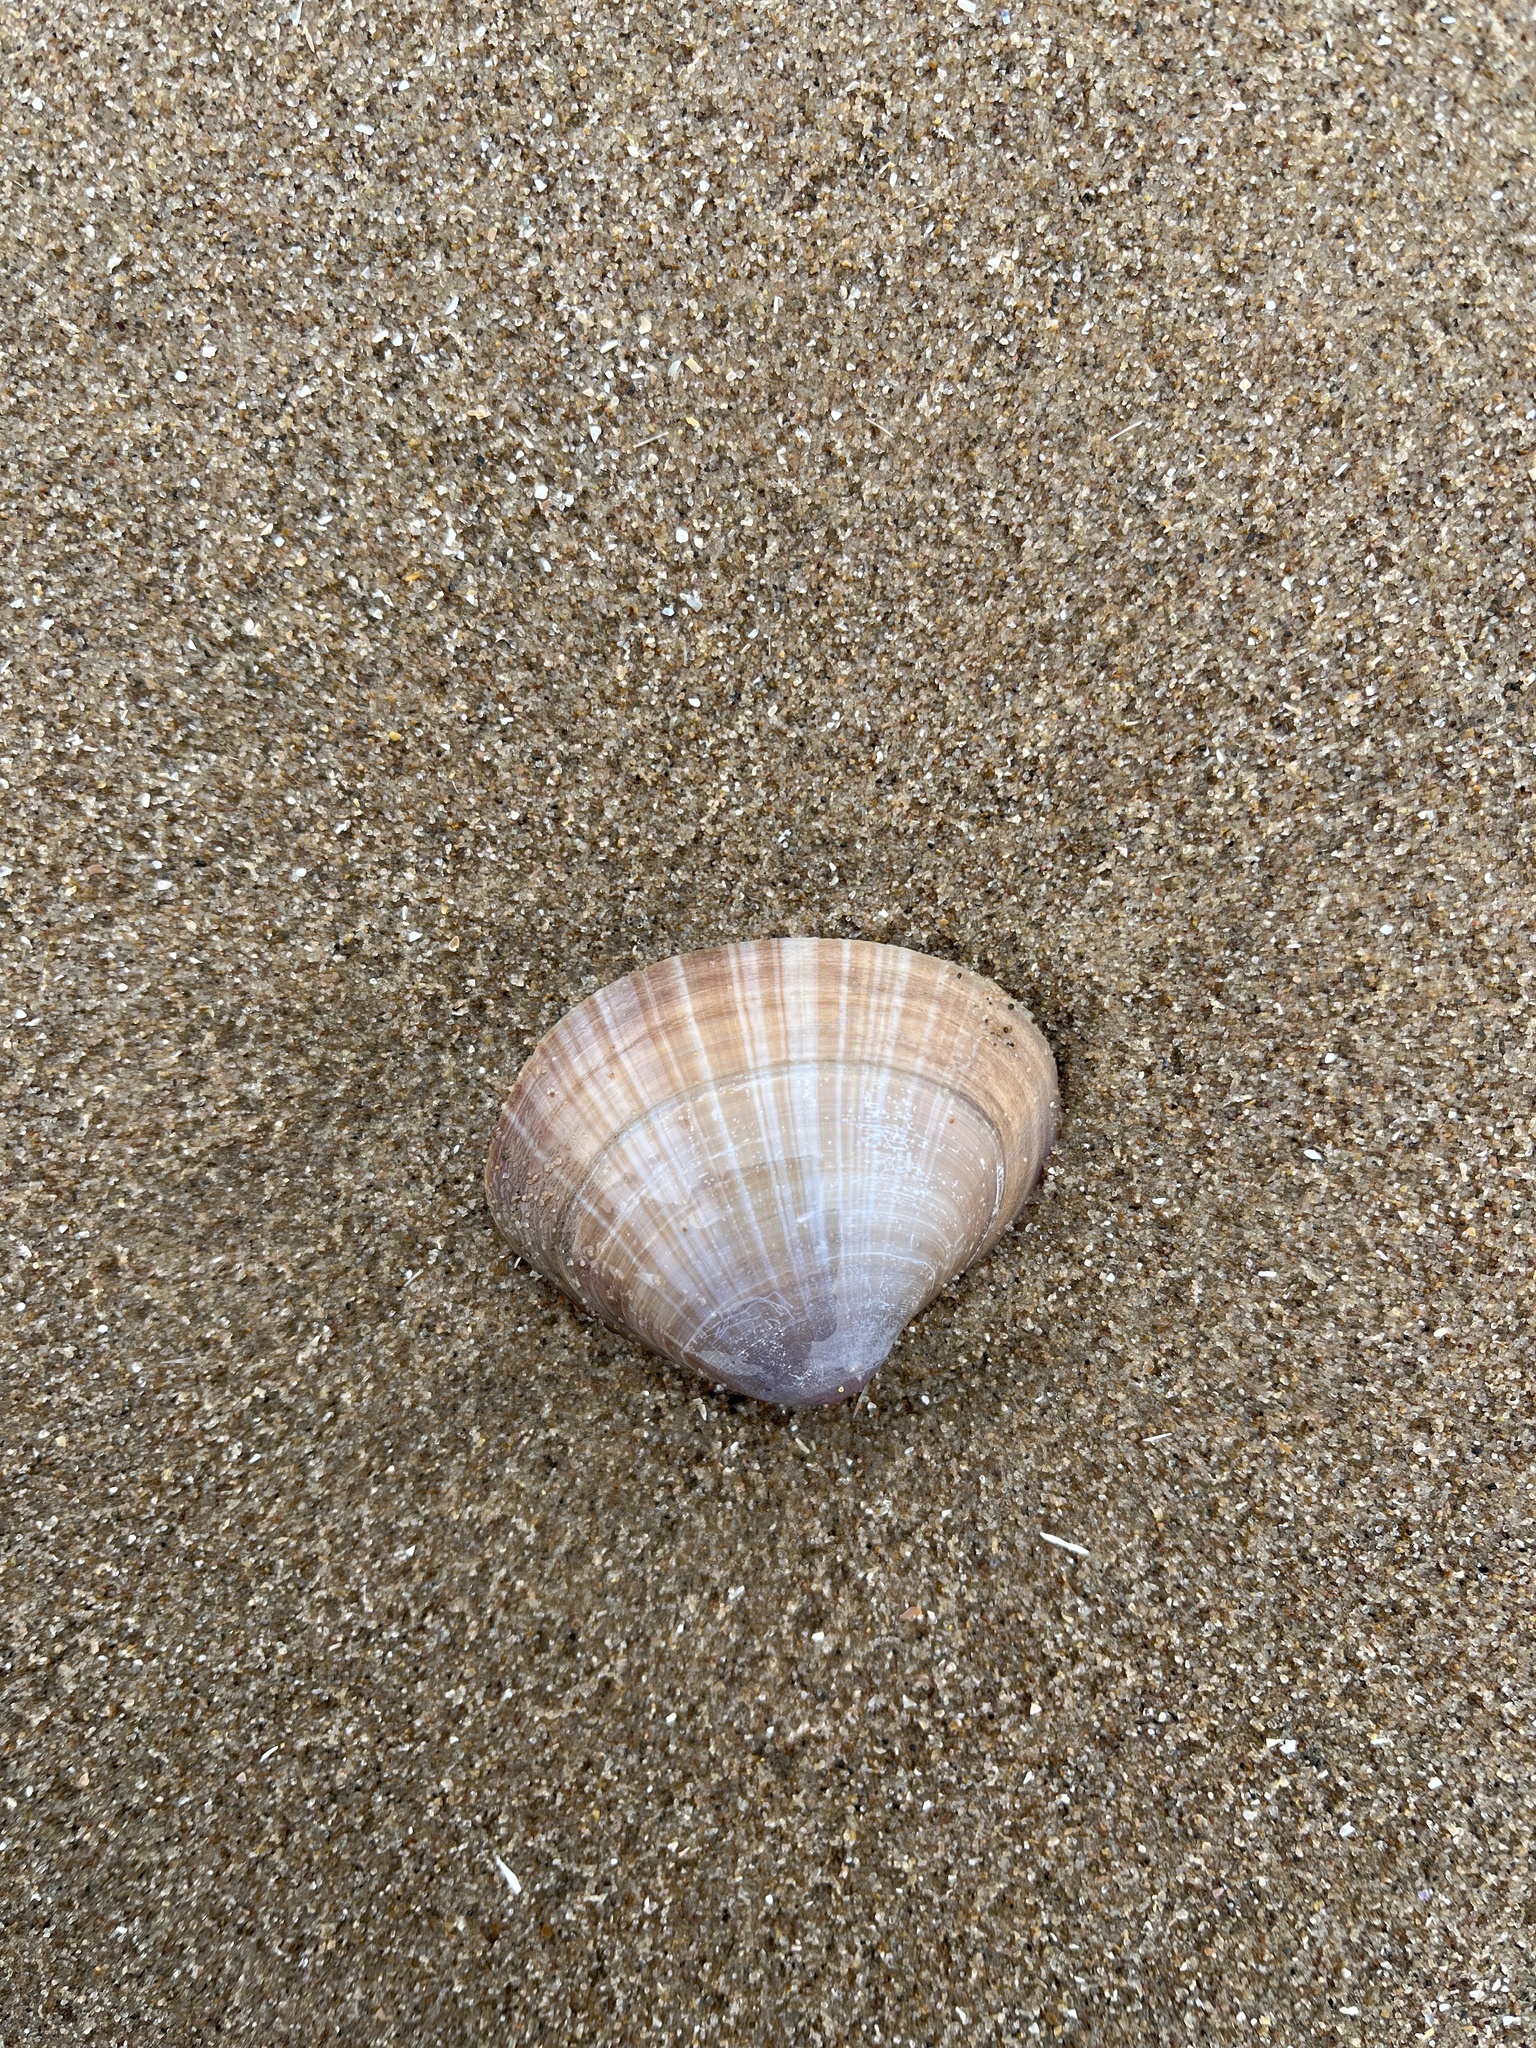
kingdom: Animalia
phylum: Mollusca
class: Bivalvia
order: Venerida
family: Mactridae
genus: Mactra
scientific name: Mactra stultorum
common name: Rayed trough shell
